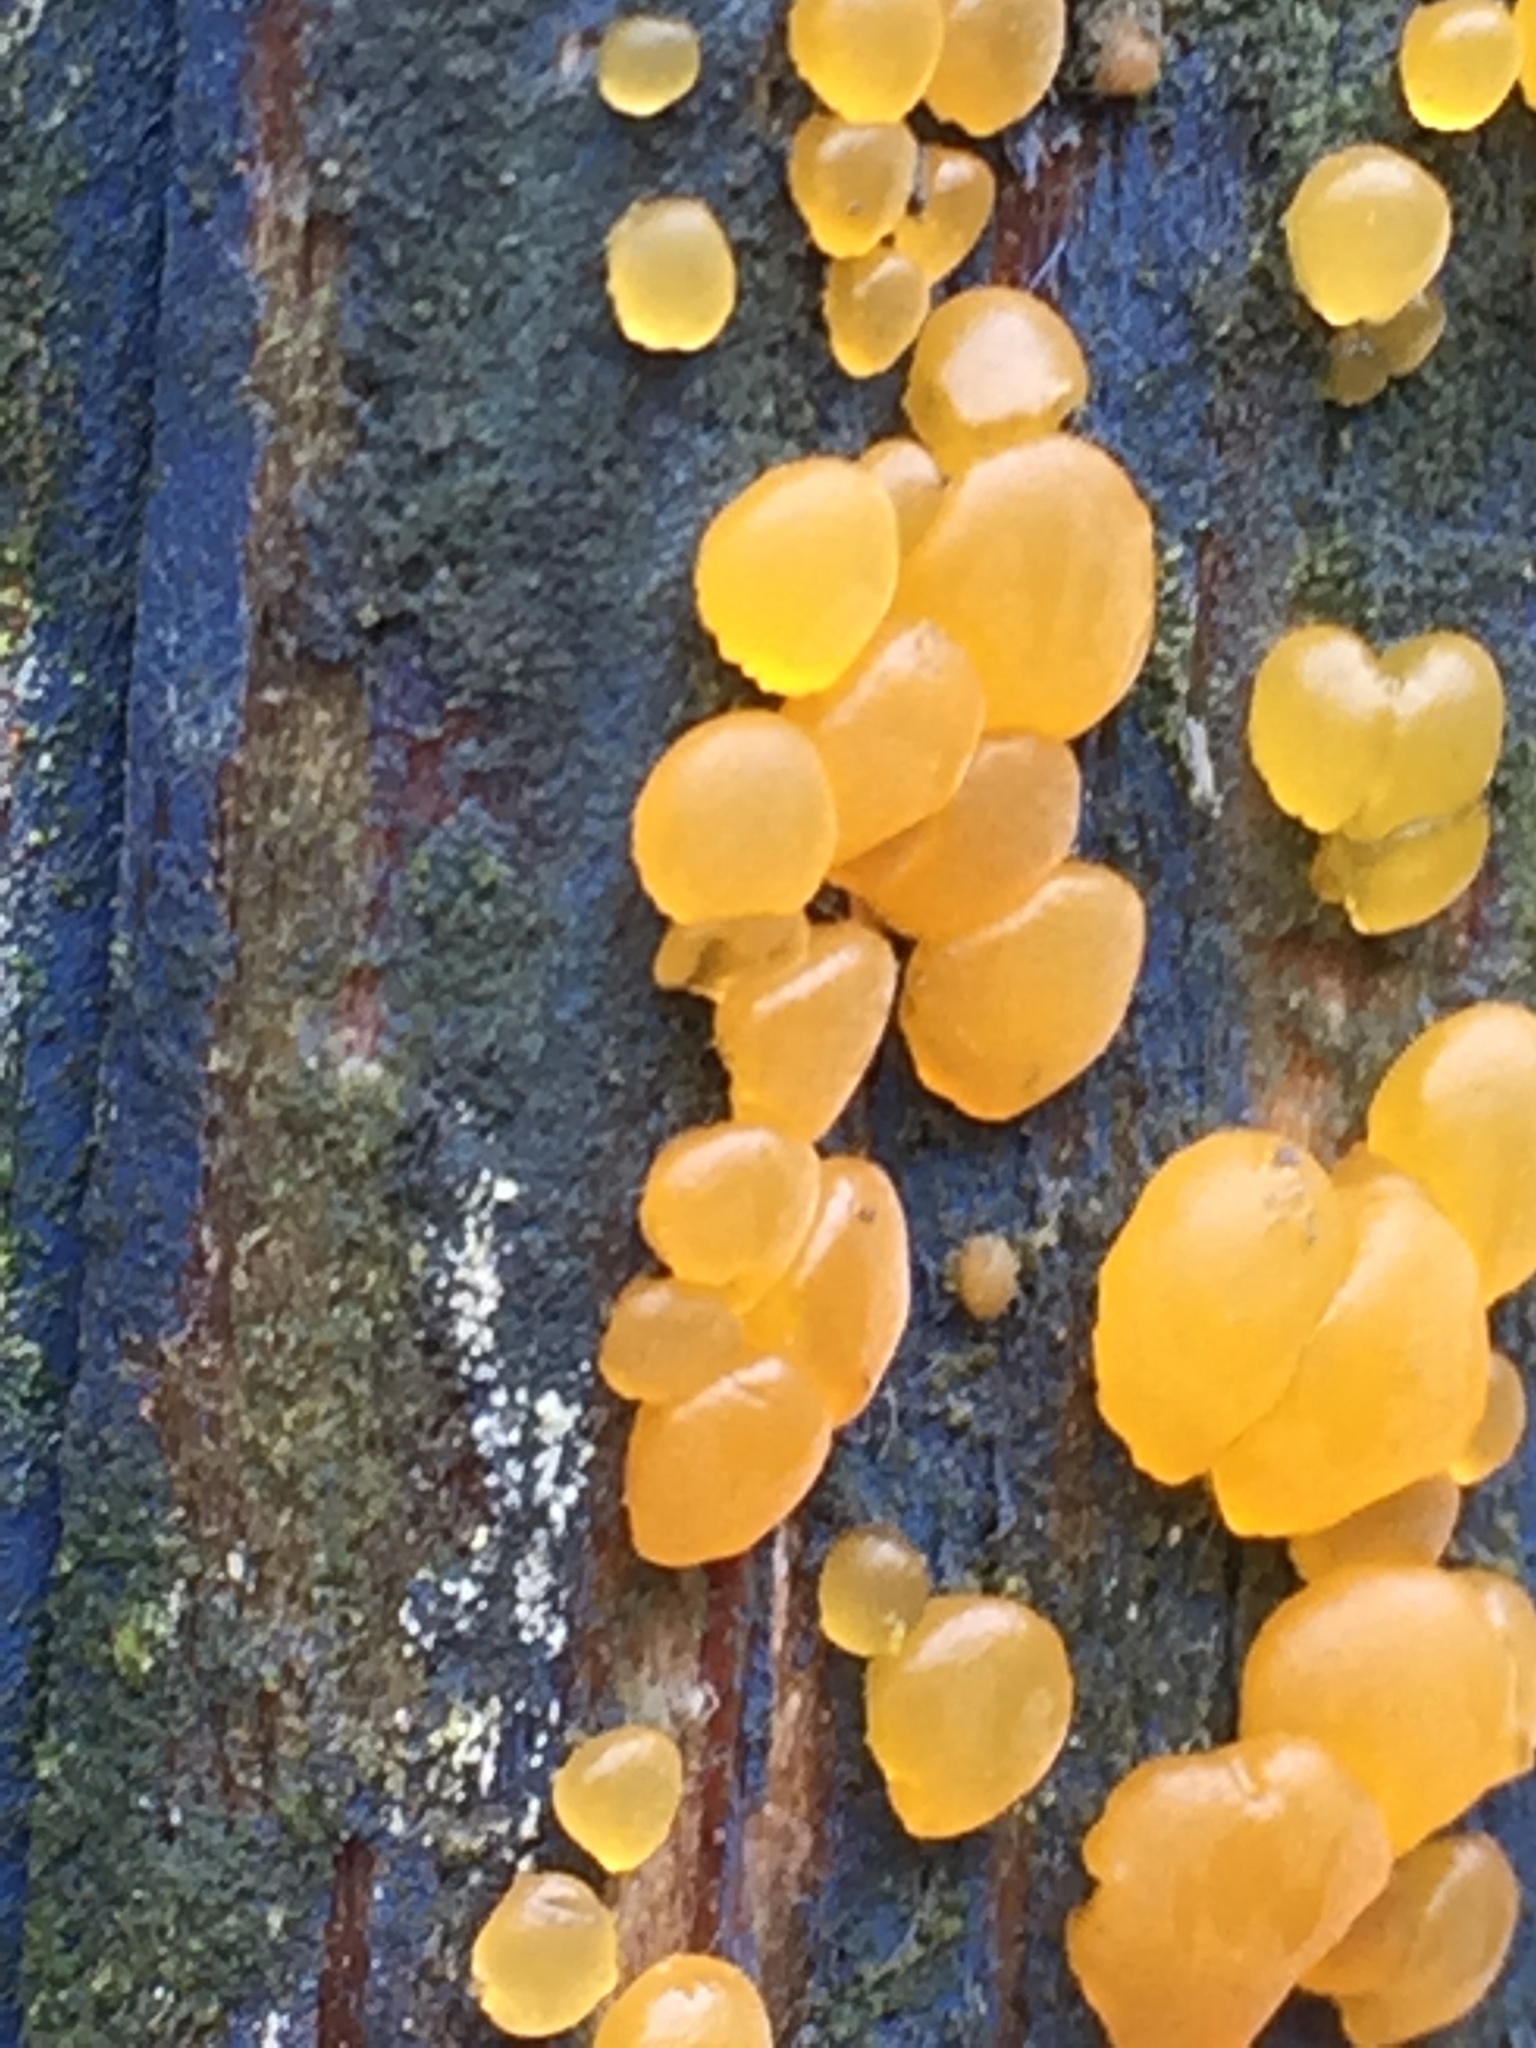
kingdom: Fungi
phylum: Basidiomycota
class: Dacrymycetes
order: Dacrymycetales
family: Dacrymycetaceae
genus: Dacrymyces
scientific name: Dacrymyces capitatus
